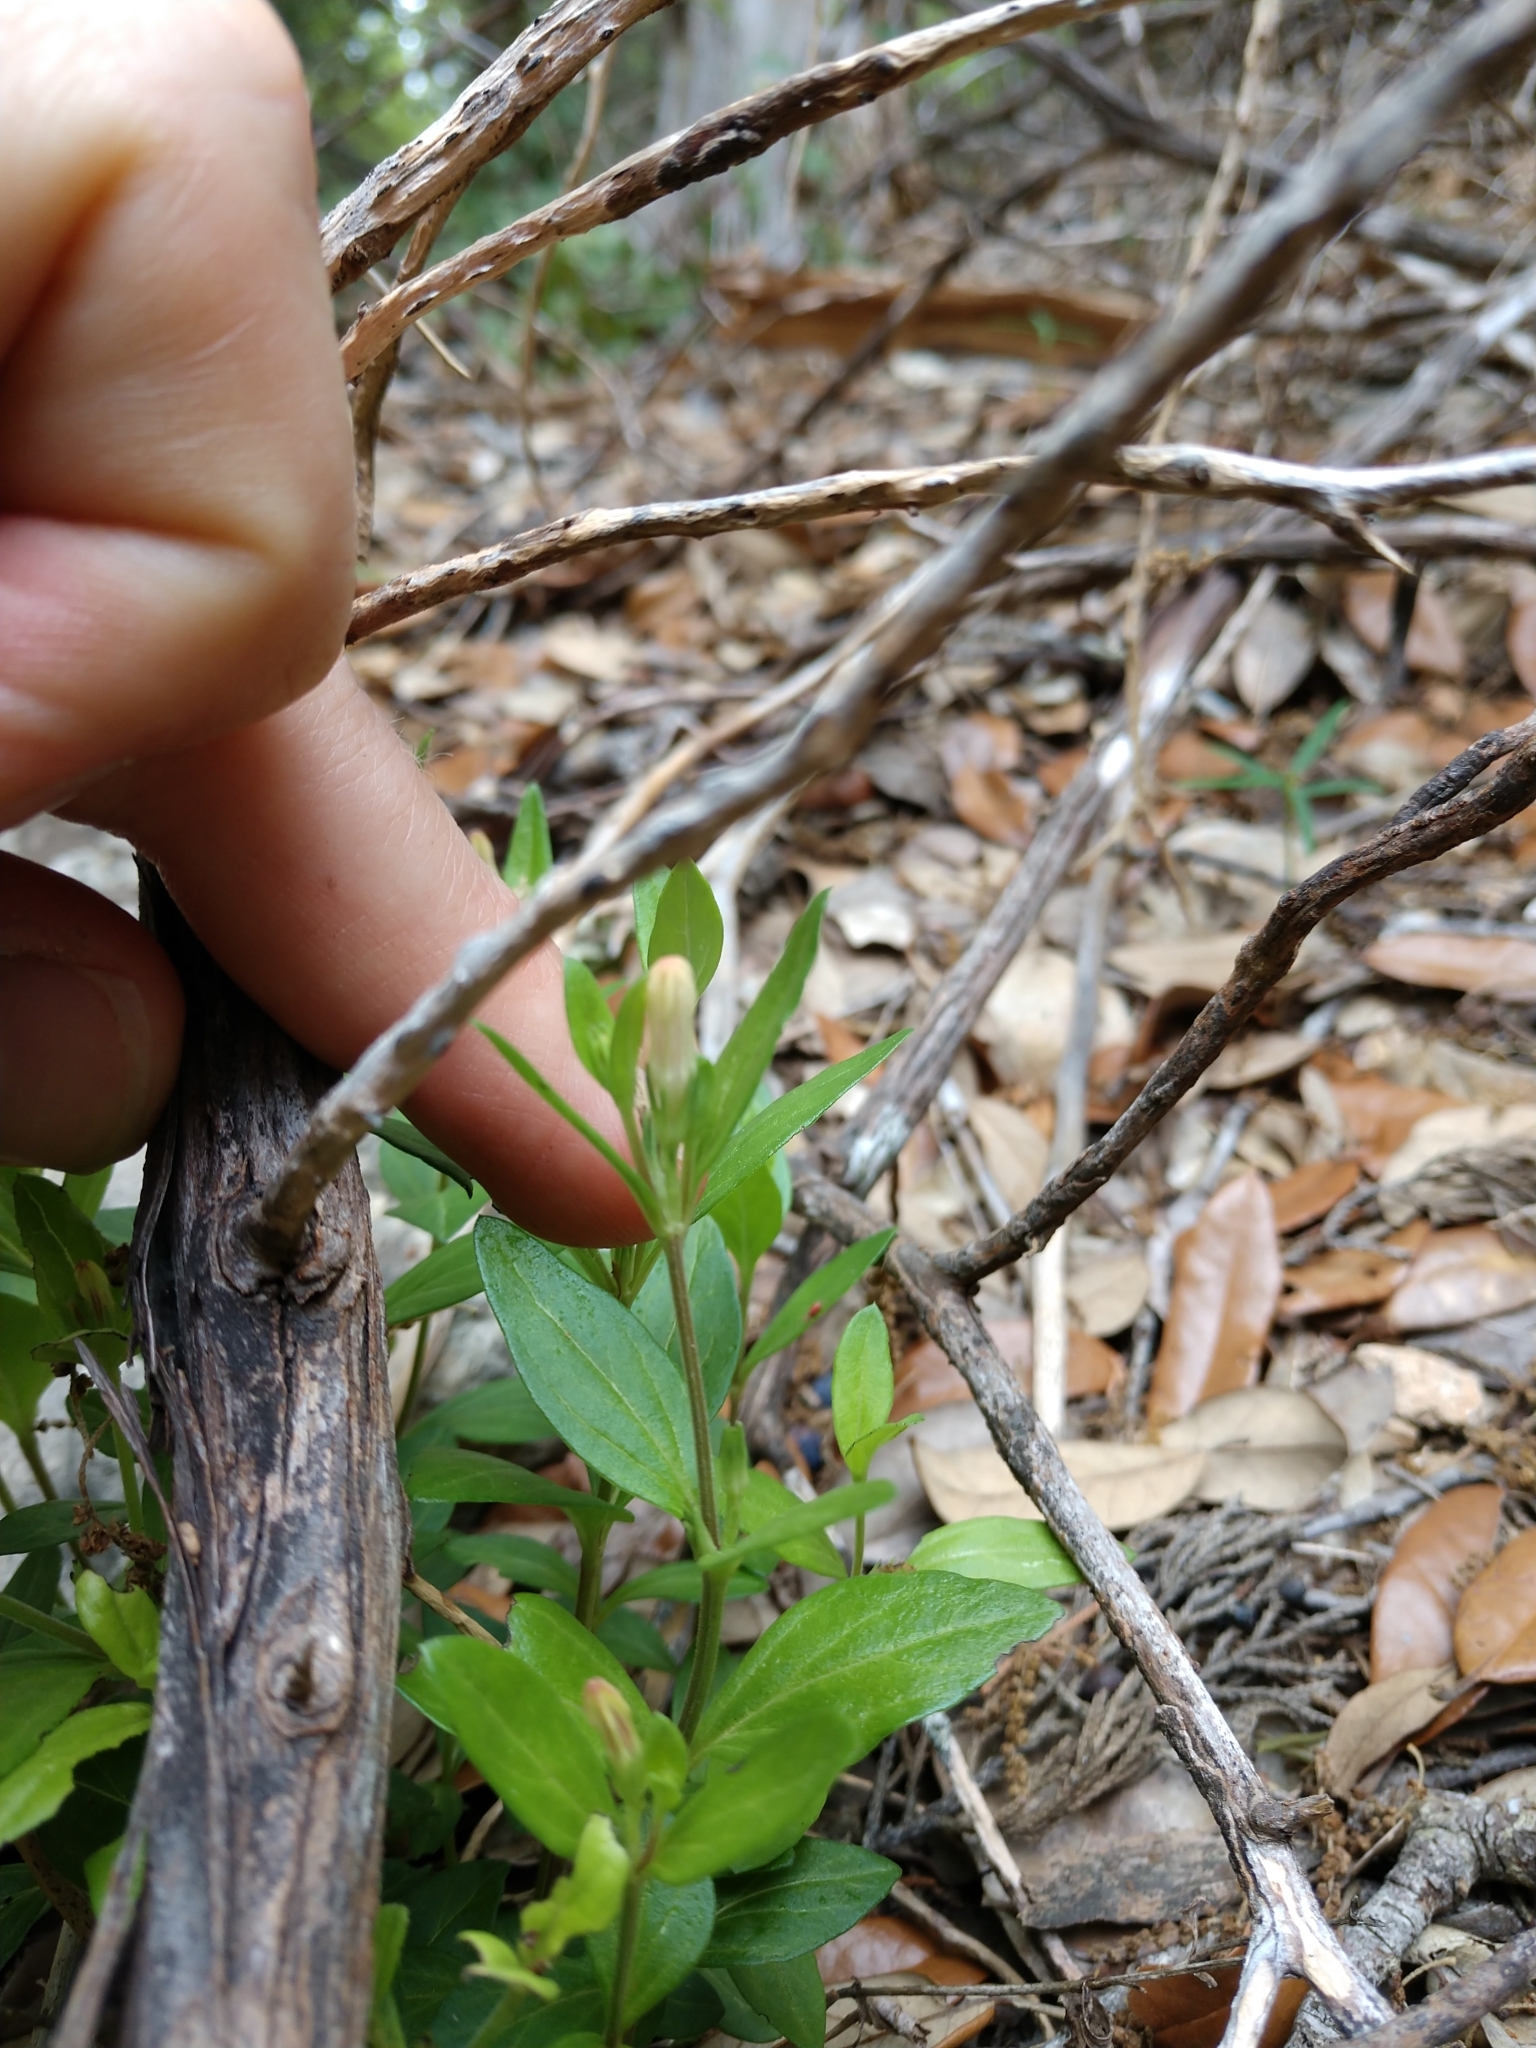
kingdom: Plantae
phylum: Tracheophyta
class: Magnoliopsida
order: Gentianales
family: Loganiaceae
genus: Spigelia
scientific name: Spigelia texana
